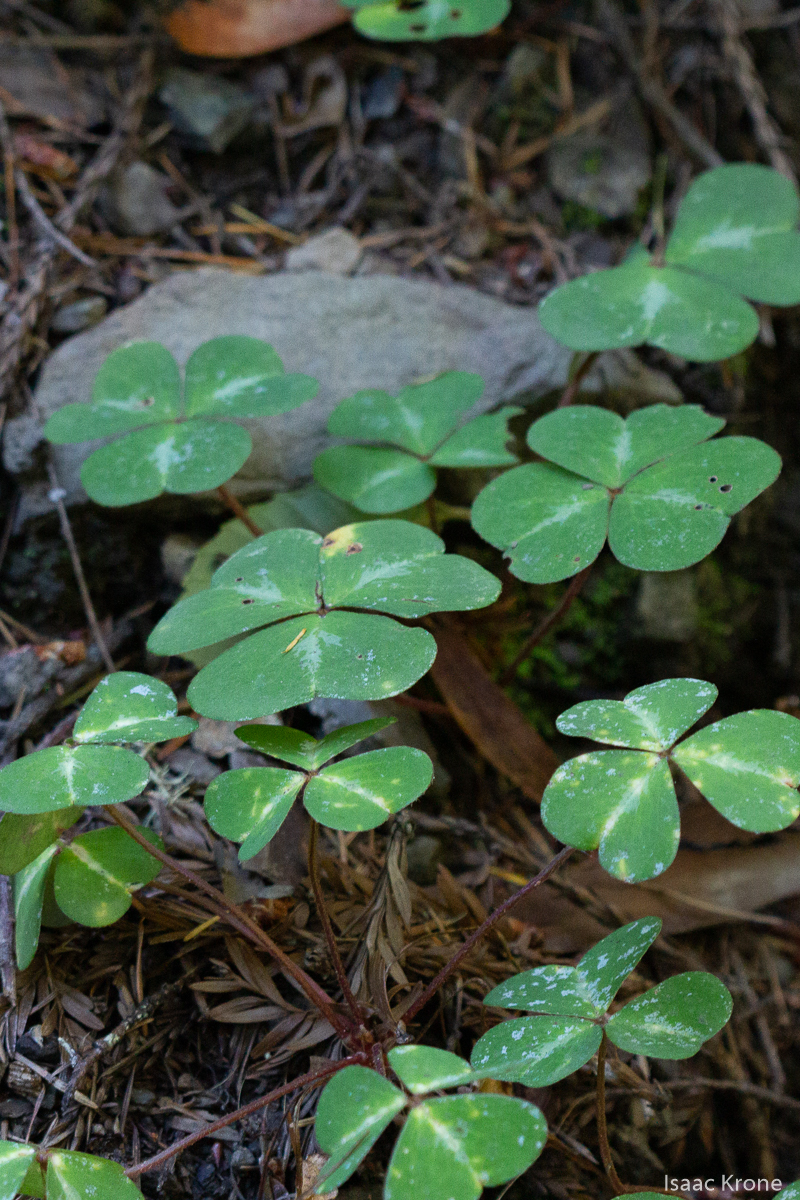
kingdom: Plantae
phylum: Tracheophyta
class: Magnoliopsida
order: Oxalidales
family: Oxalidaceae
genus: Oxalis
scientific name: Oxalis oregana
